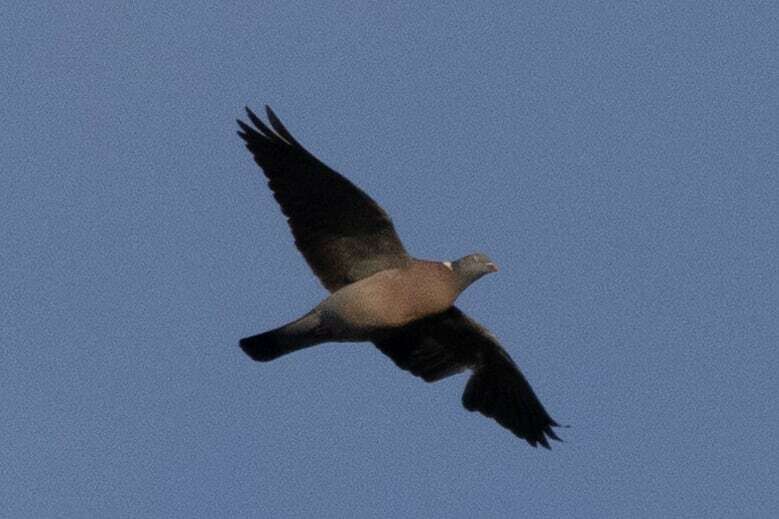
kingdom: Animalia
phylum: Chordata
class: Aves
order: Columbiformes
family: Columbidae
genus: Columba
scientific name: Columba palumbus
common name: Common wood pigeon
